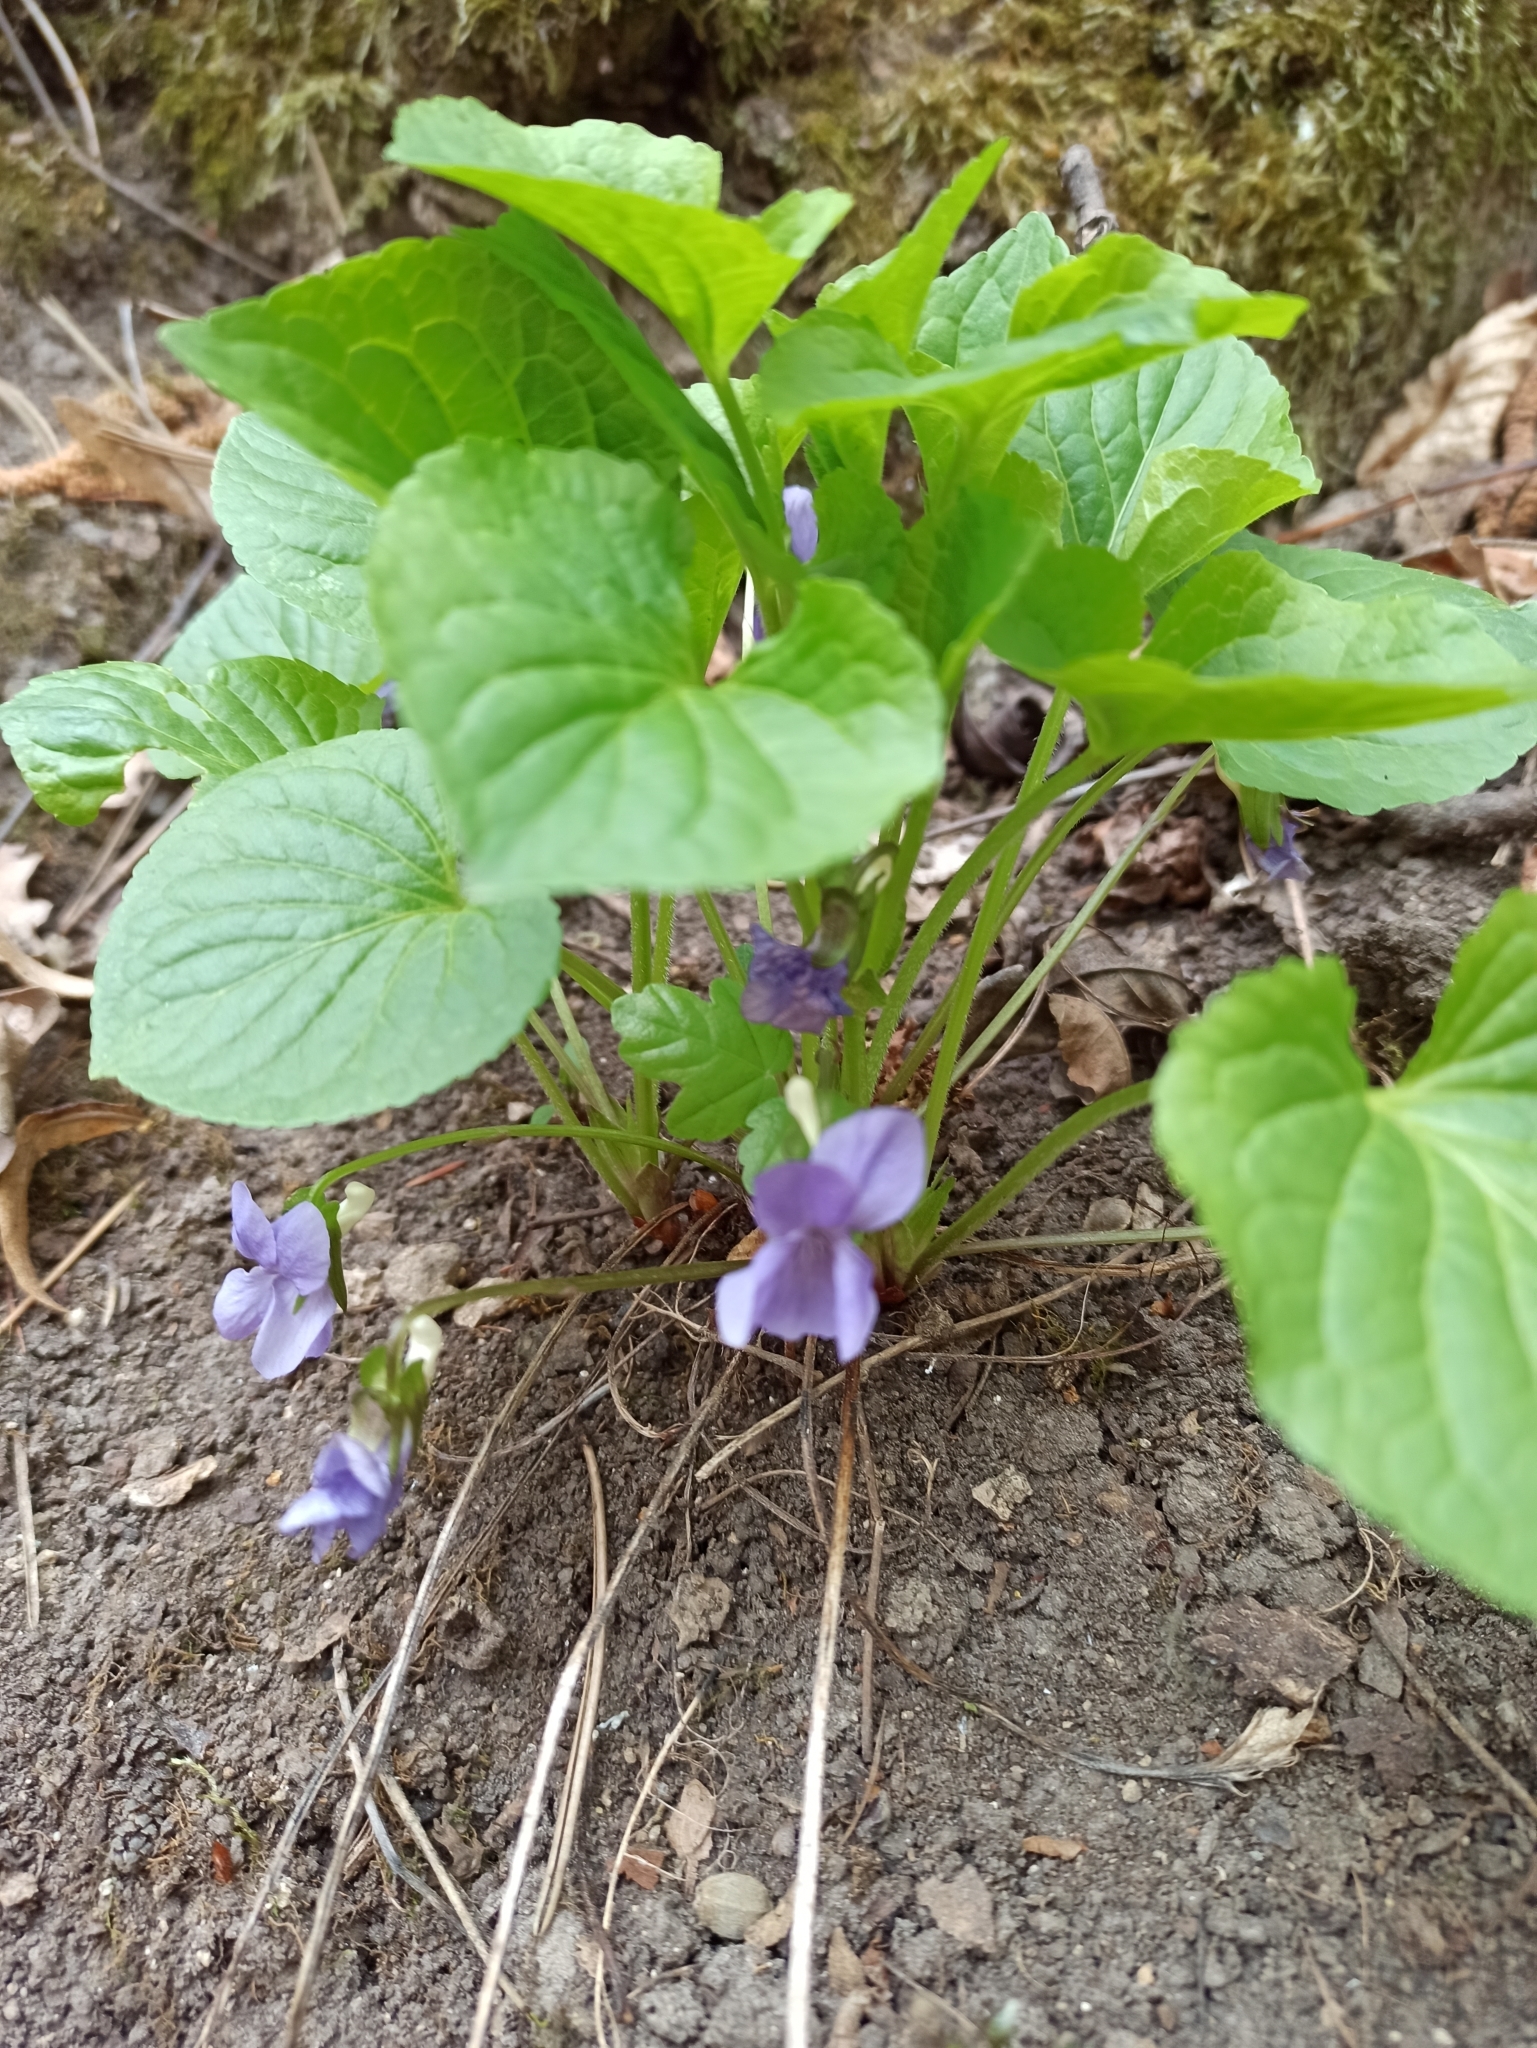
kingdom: Plantae
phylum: Tracheophyta
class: Magnoliopsida
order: Malpighiales
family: Violaceae
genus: Viola
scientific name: Viola mirabilis
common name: Wonder violet
